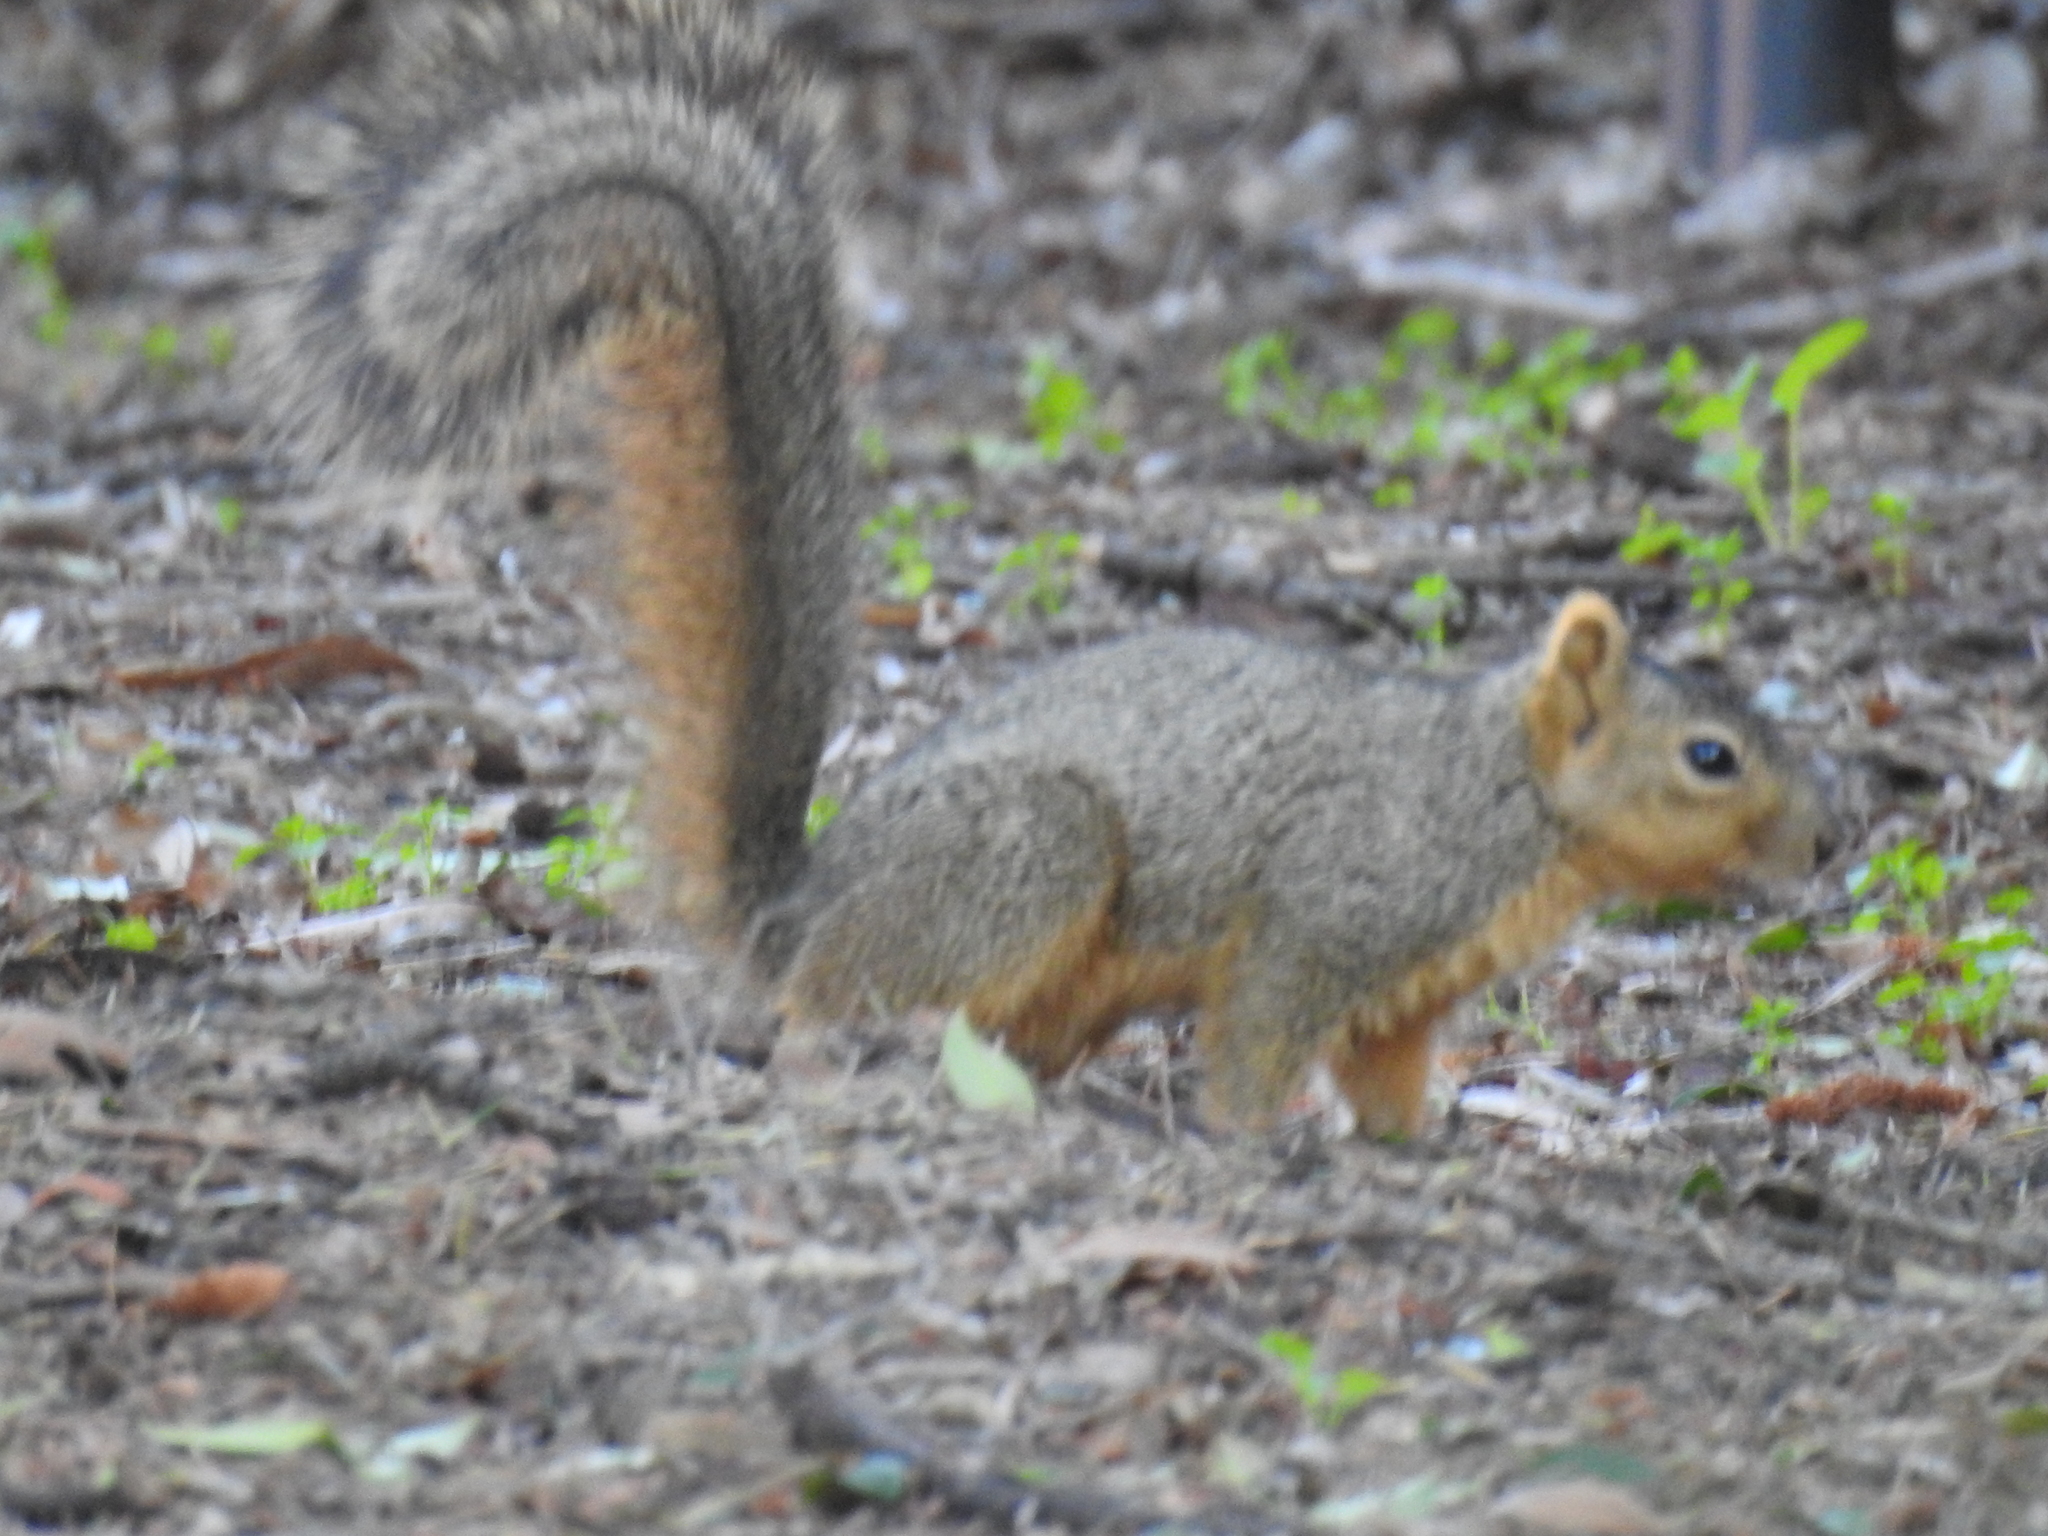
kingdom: Animalia
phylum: Chordata
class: Mammalia
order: Rodentia
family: Sciuridae
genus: Sciurus
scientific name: Sciurus niger
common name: Fox squirrel
